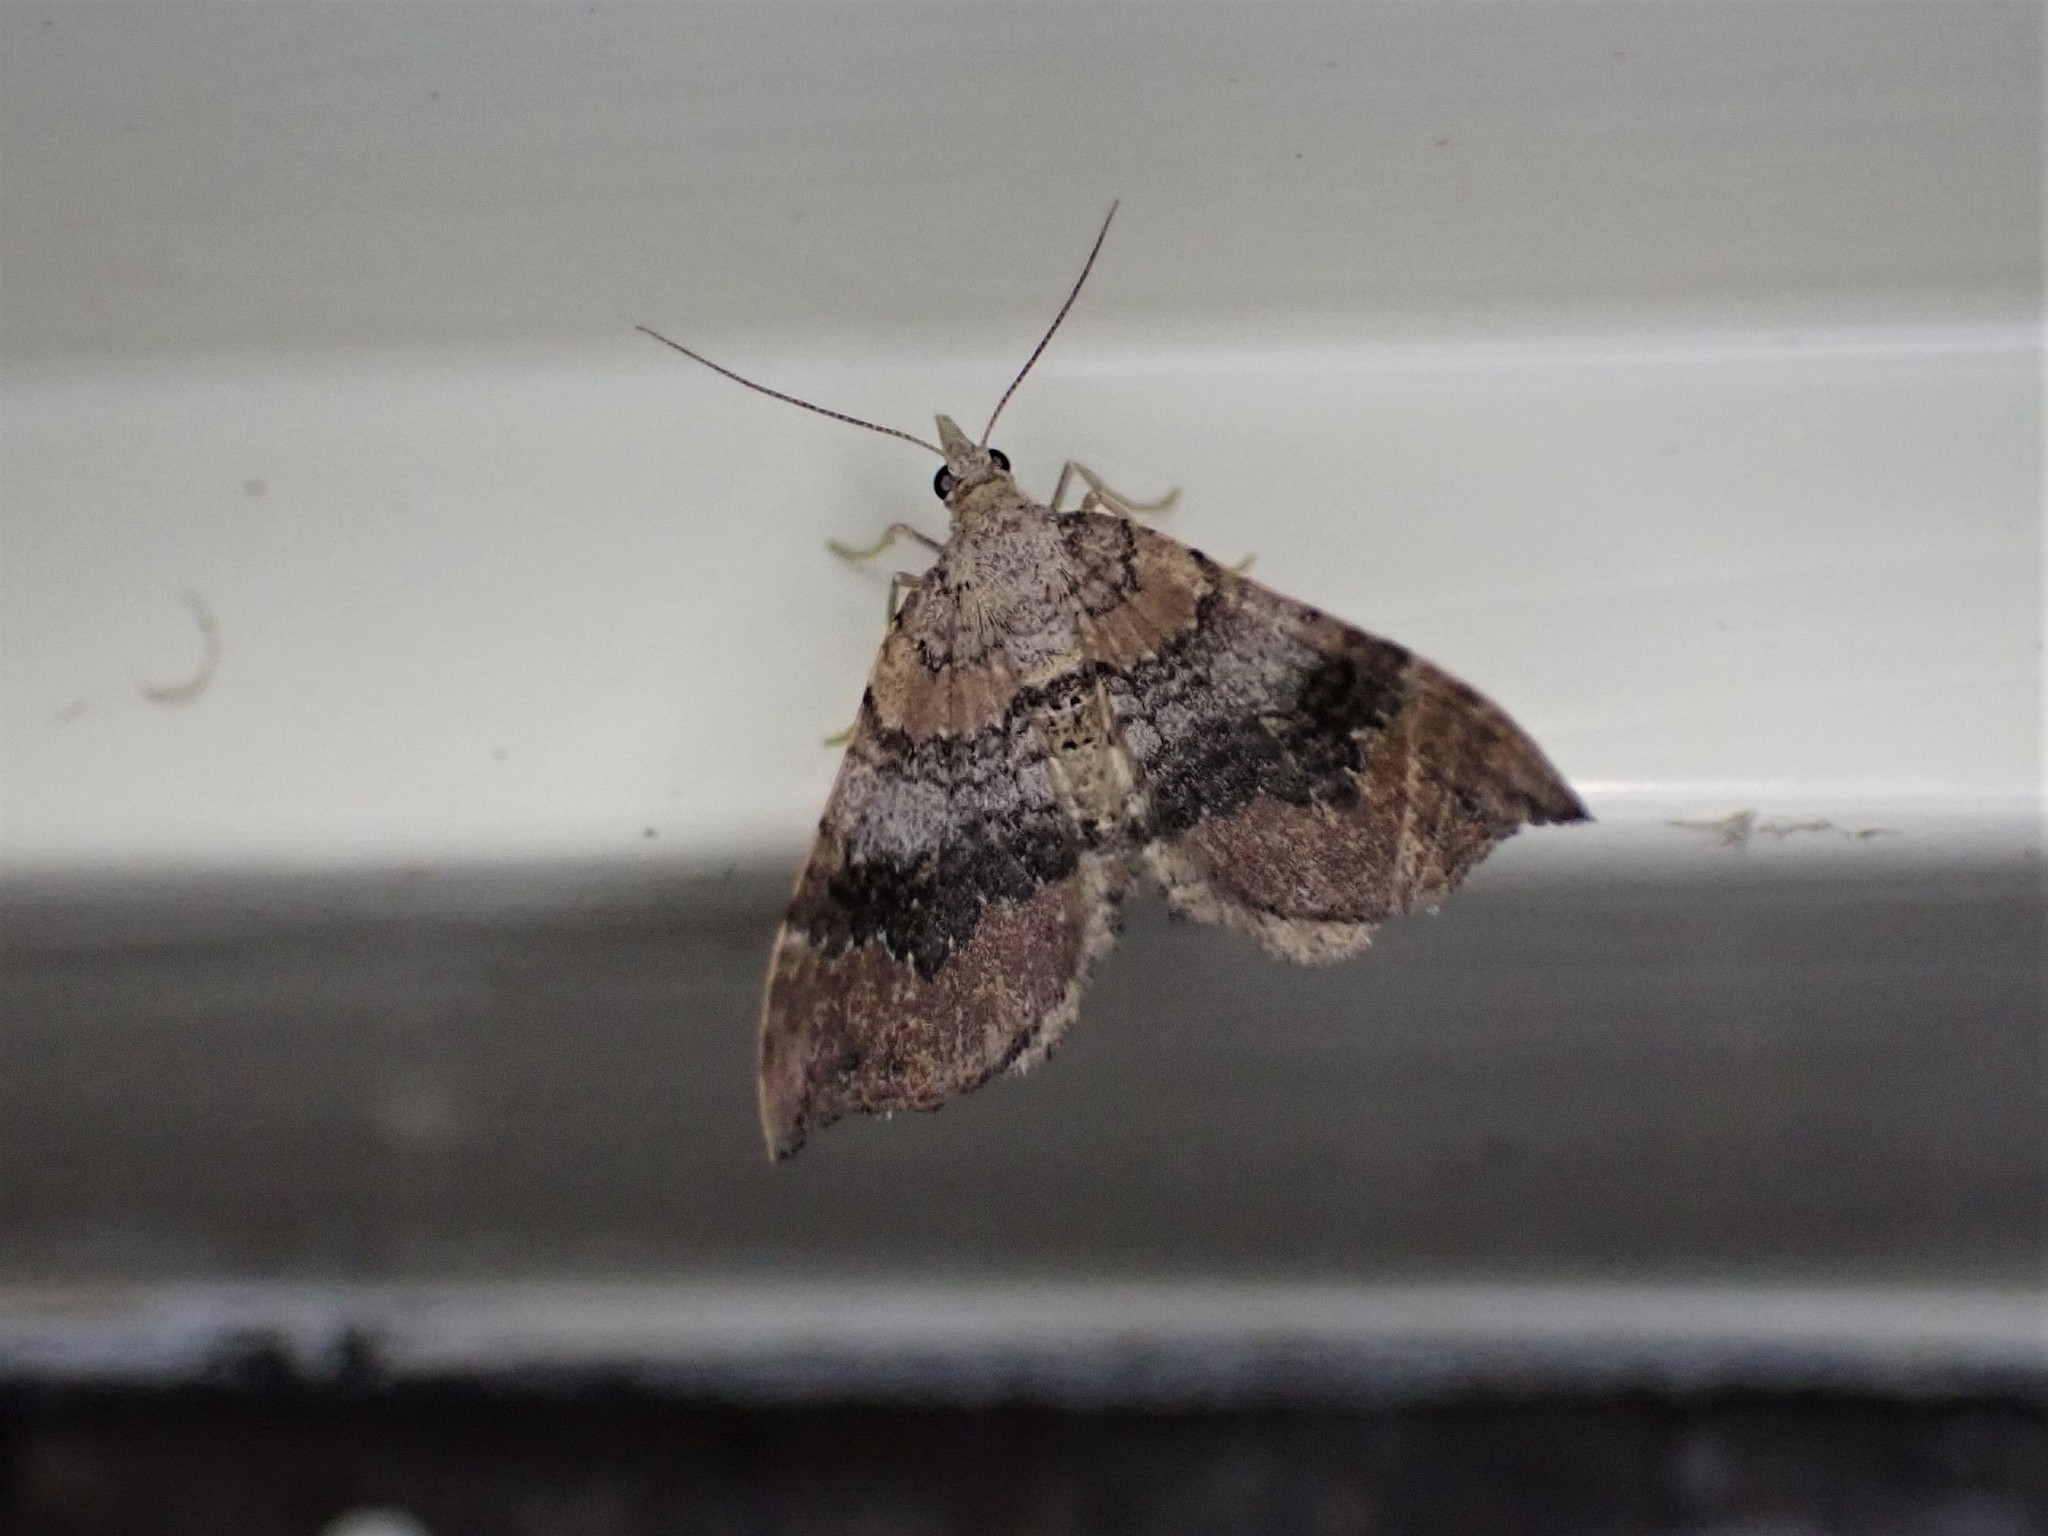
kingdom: Animalia
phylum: Arthropoda
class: Insecta
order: Lepidoptera
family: Geometridae
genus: Homodotis
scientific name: Homodotis megaspilata
